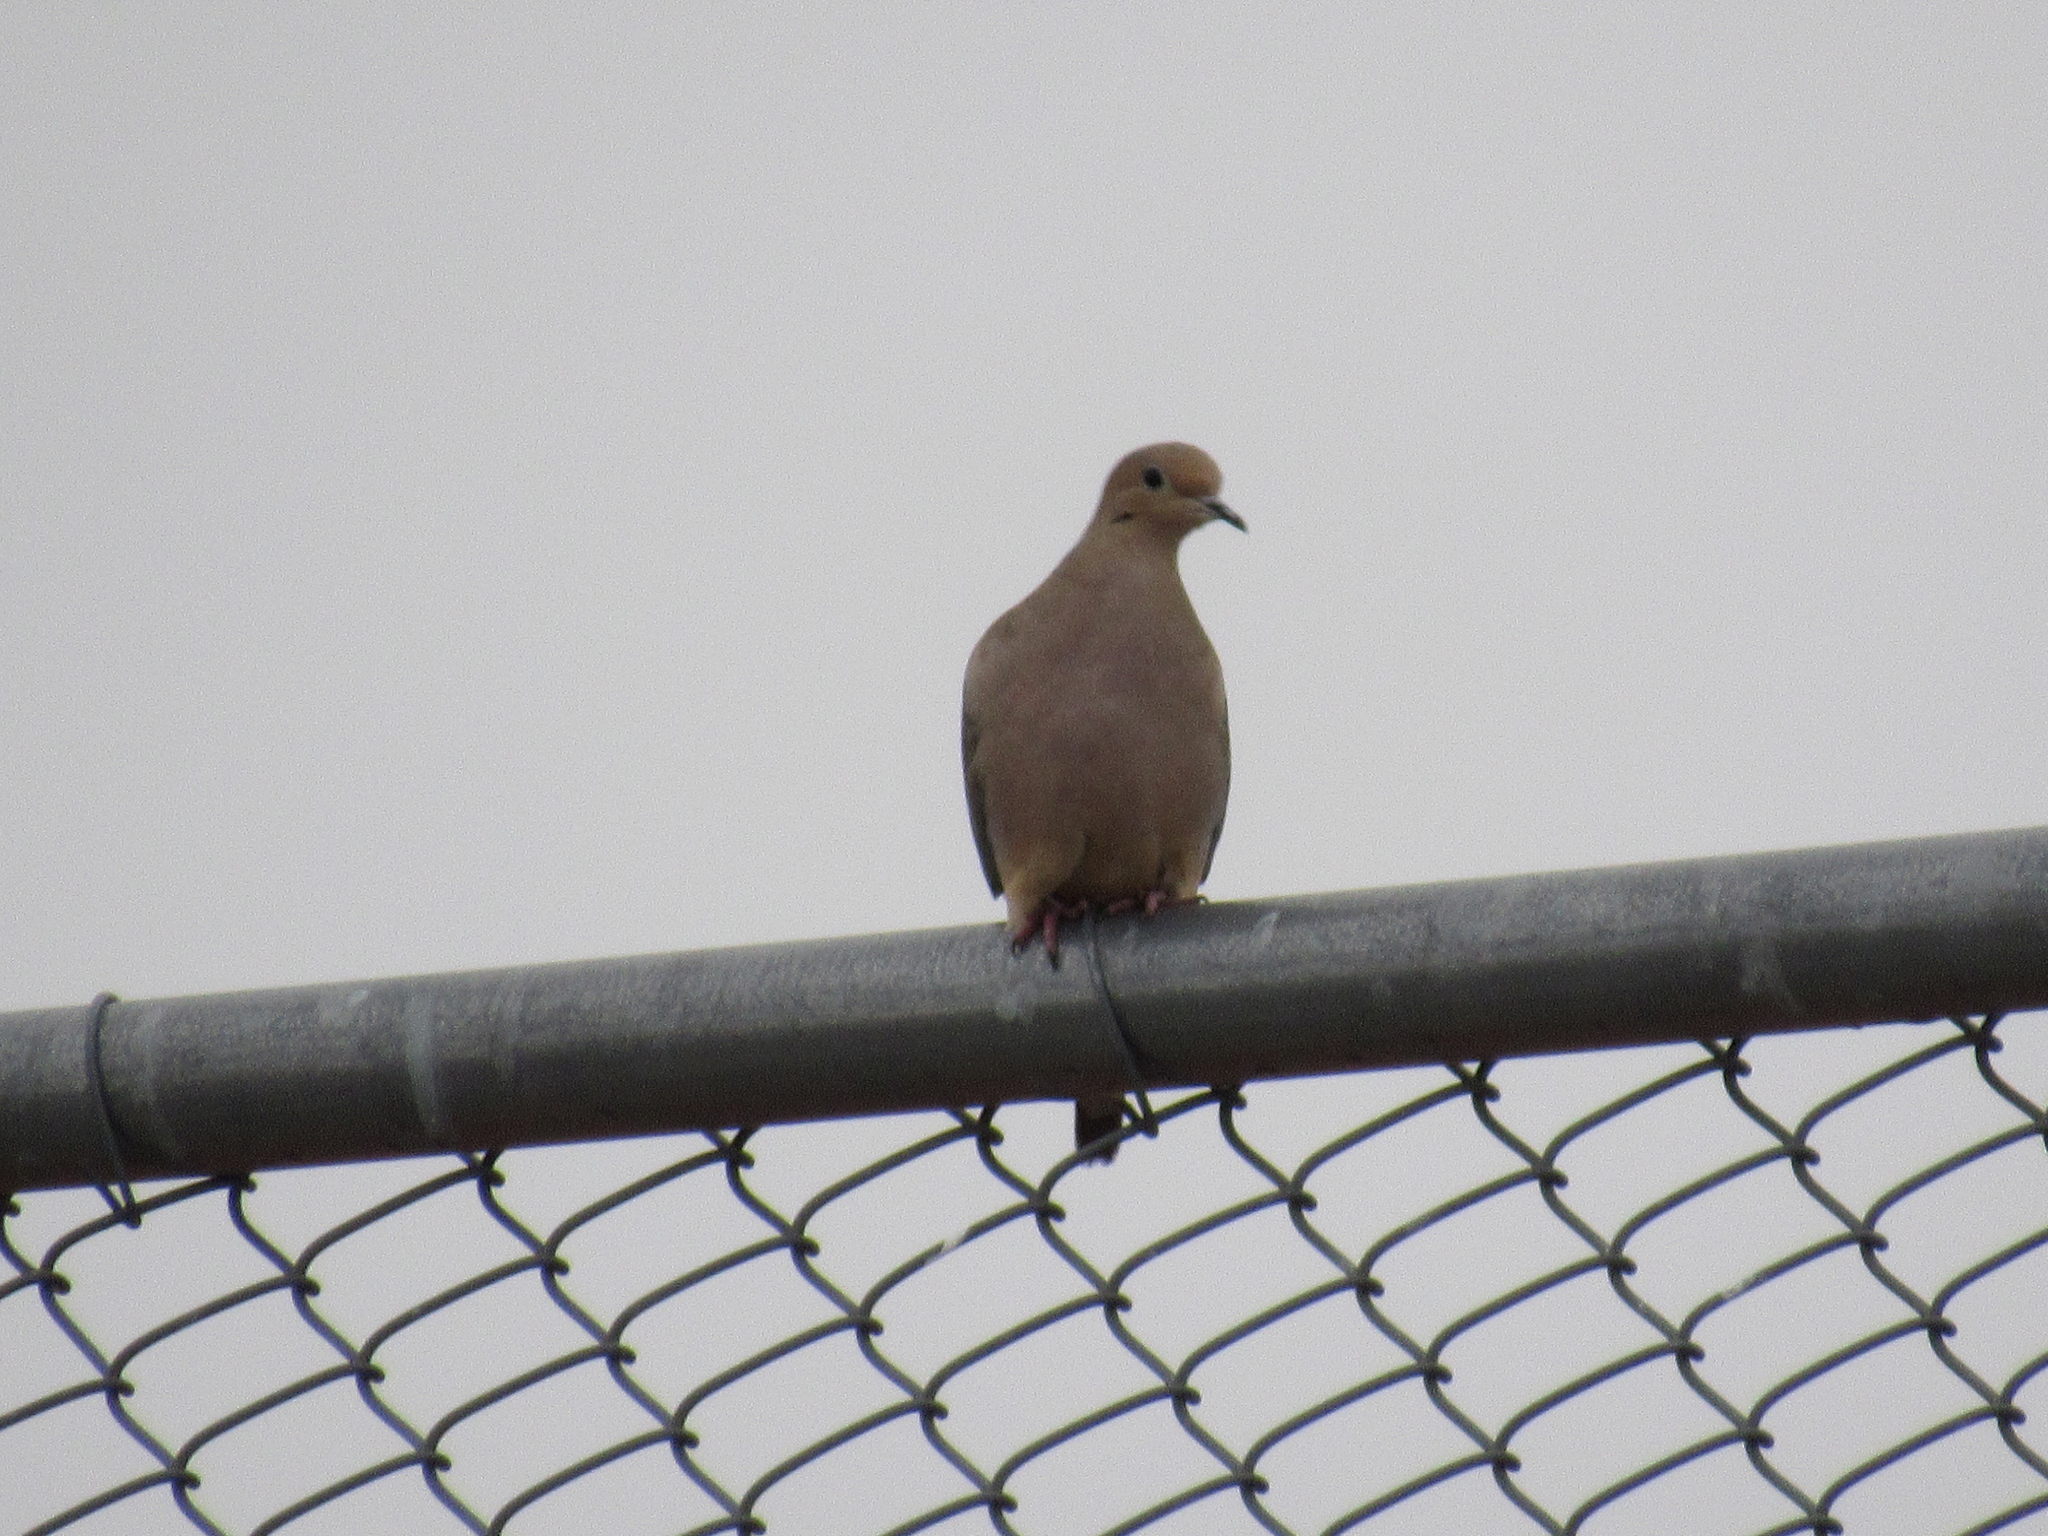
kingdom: Animalia
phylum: Chordata
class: Aves
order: Columbiformes
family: Columbidae
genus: Zenaida
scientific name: Zenaida macroura
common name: Mourning dove
